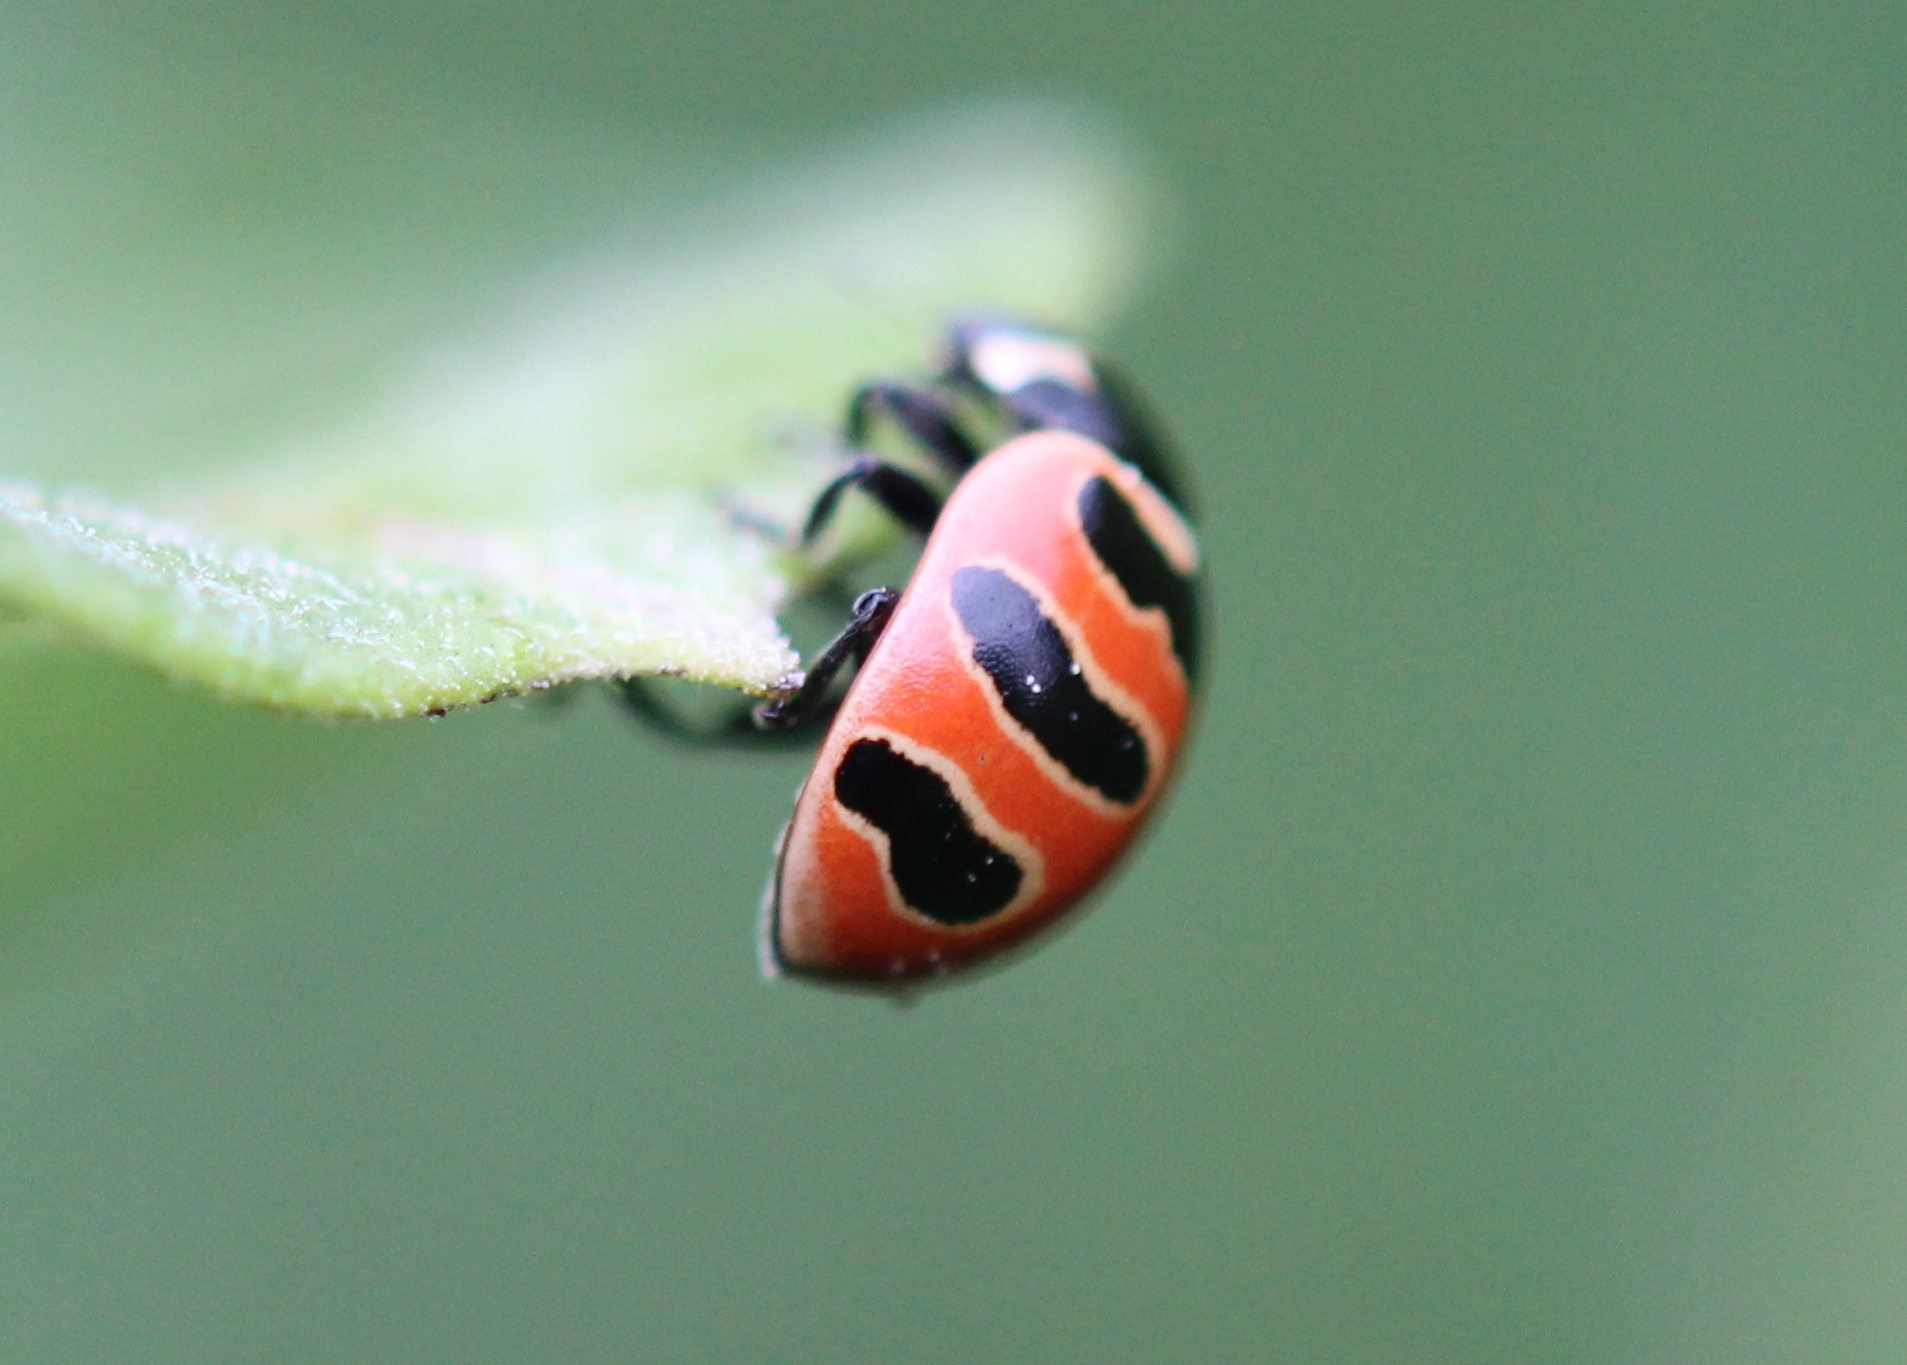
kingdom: Animalia
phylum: Arthropoda
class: Insecta
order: Coleoptera
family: Coccinellidae
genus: Coccinella
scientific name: Coccinella trifasciata
